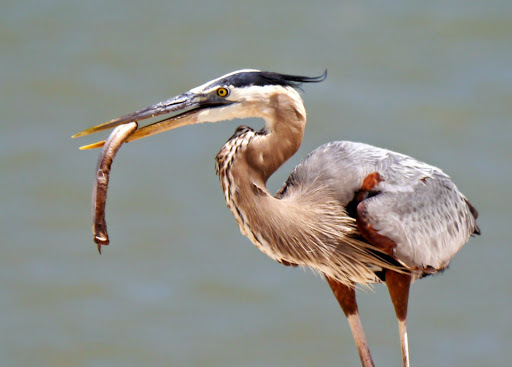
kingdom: Animalia
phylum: Chordata
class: Aves
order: Pelecaniformes
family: Ardeidae
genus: Ardea
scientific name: Ardea herodias
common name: Great blue heron
